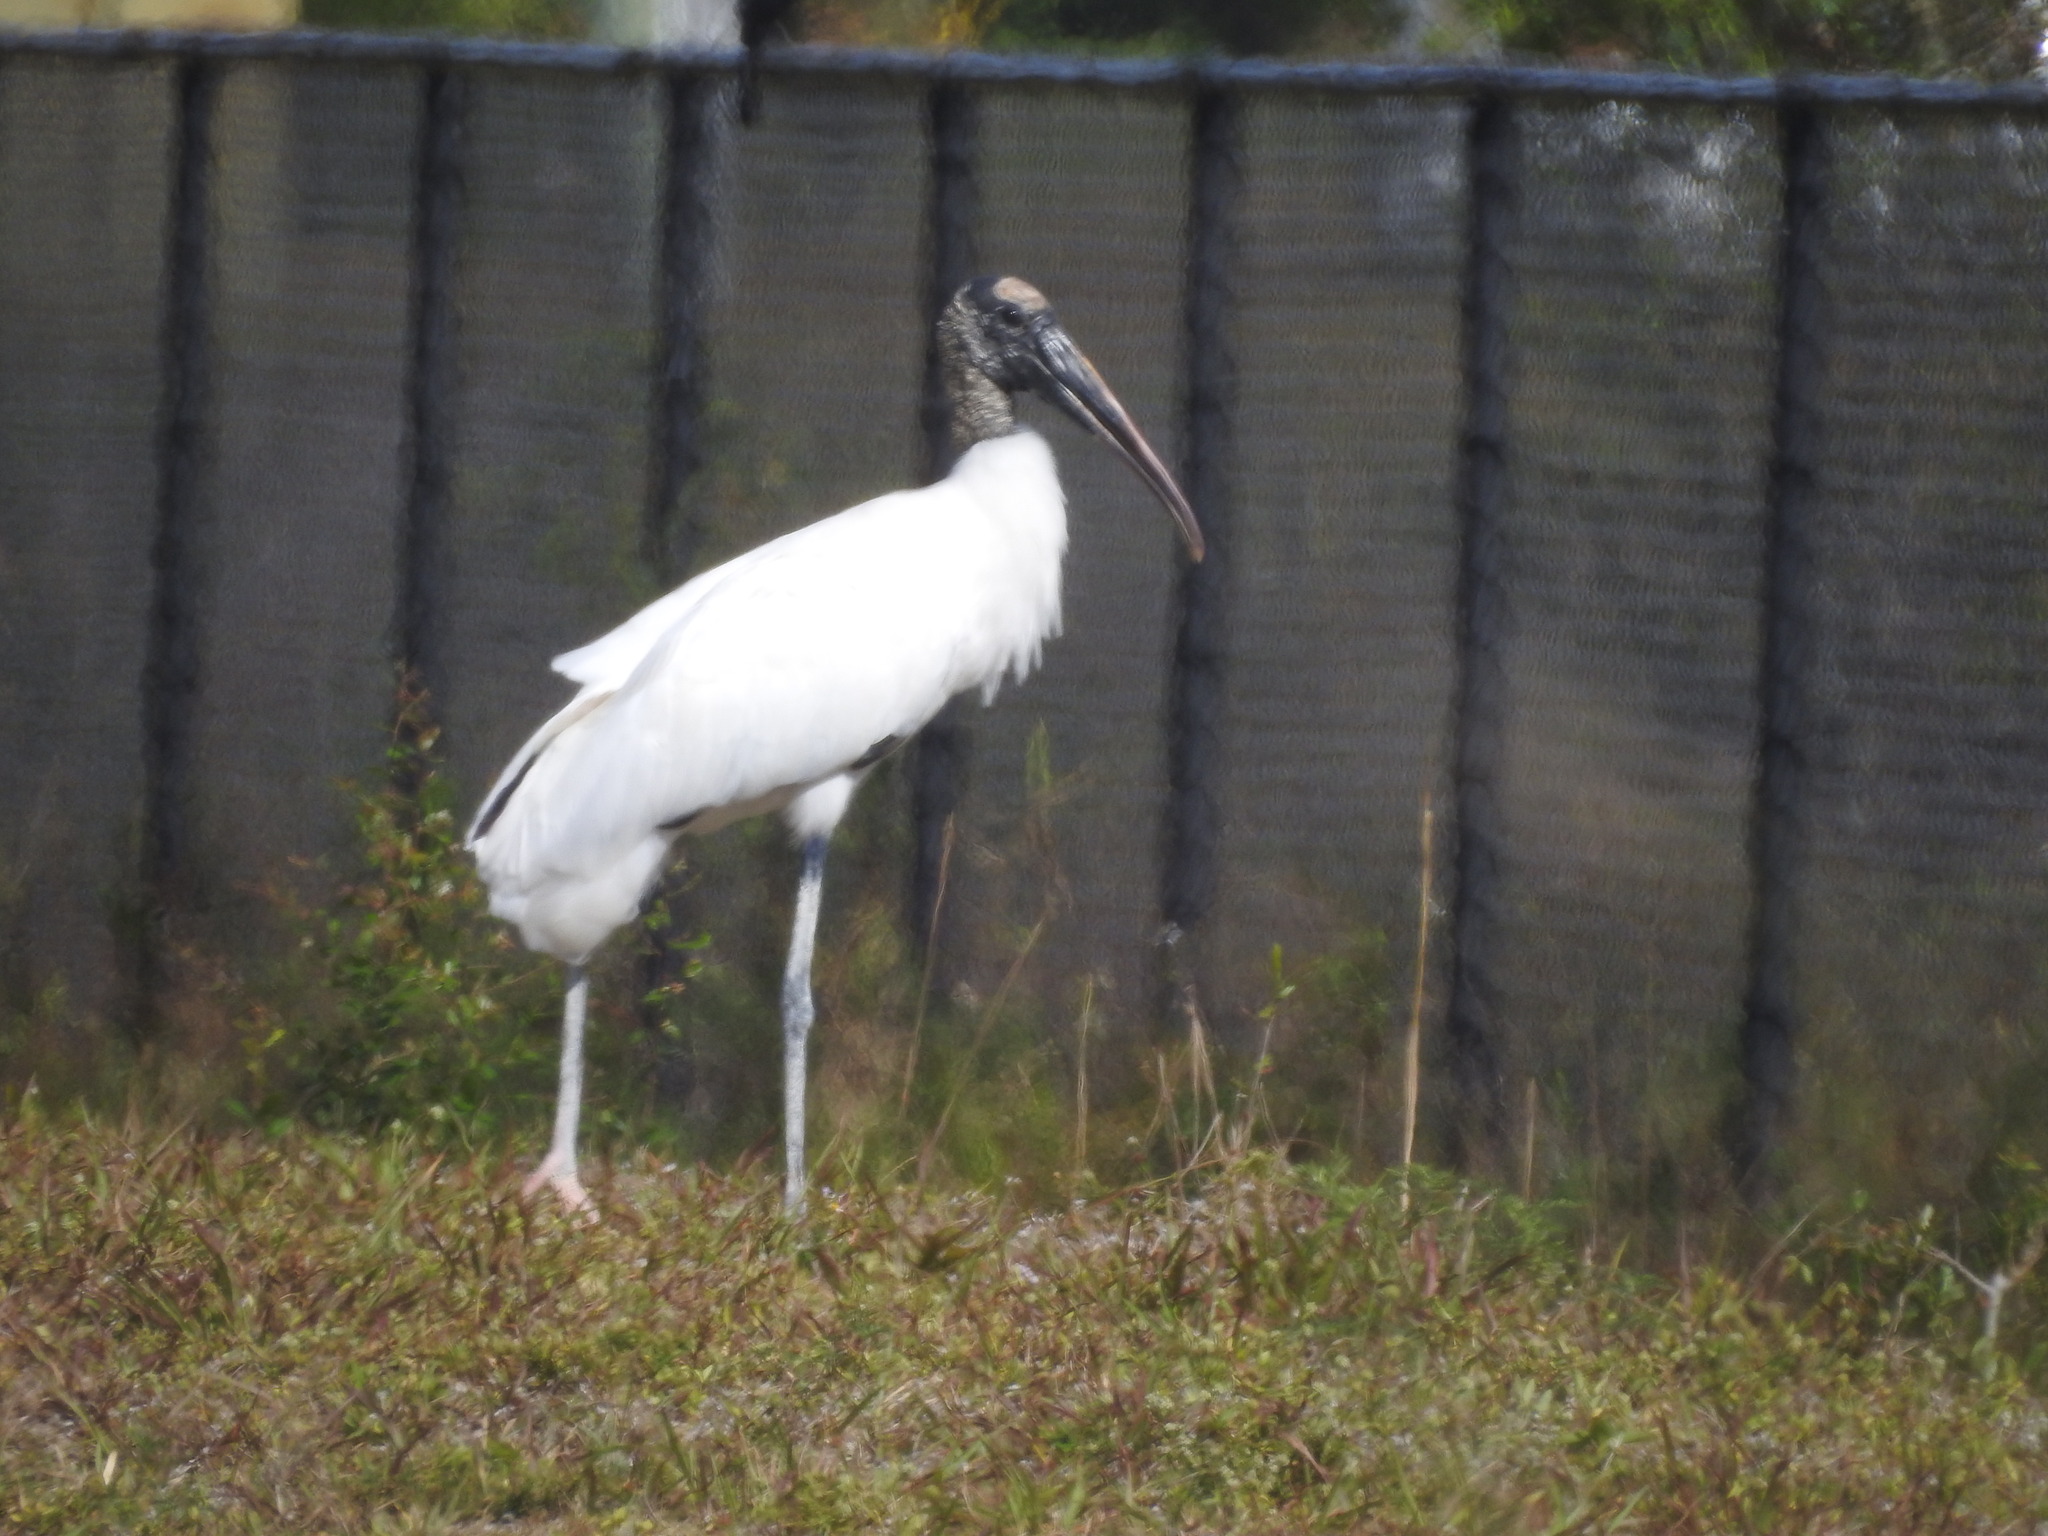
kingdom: Animalia
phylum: Chordata
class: Aves
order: Ciconiiformes
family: Ciconiidae
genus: Mycteria
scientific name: Mycteria americana
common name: Wood stork
